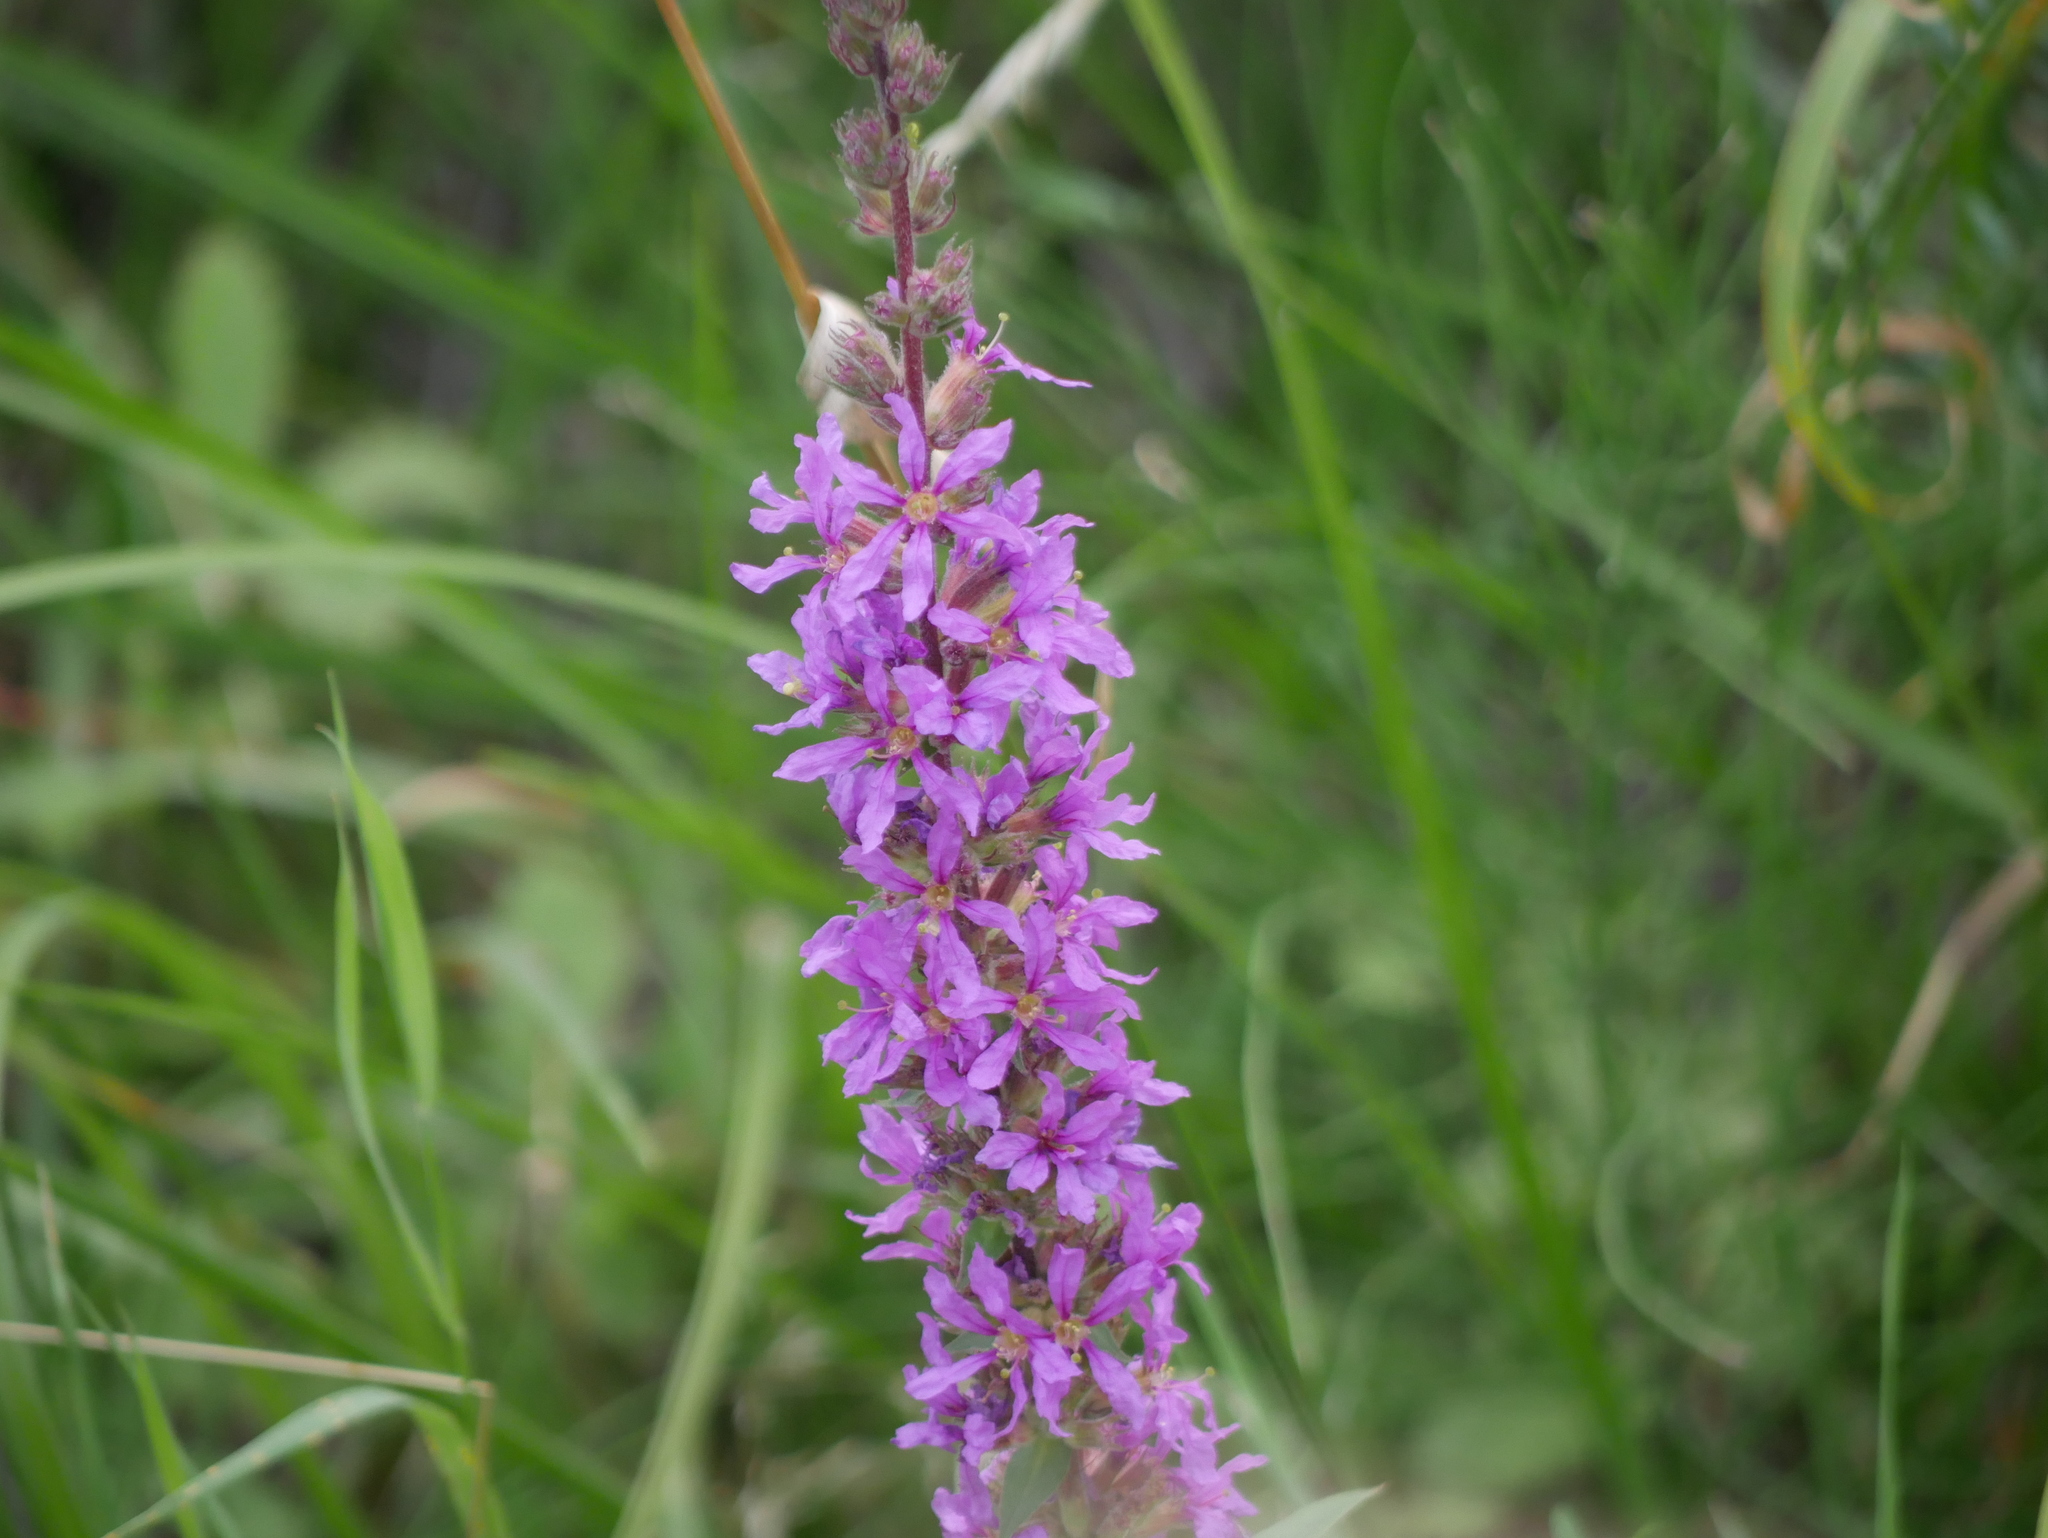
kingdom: Plantae
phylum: Tracheophyta
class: Magnoliopsida
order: Myrtales
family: Lythraceae
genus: Lythrum
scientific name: Lythrum salicaria
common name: Purple loosestrife
